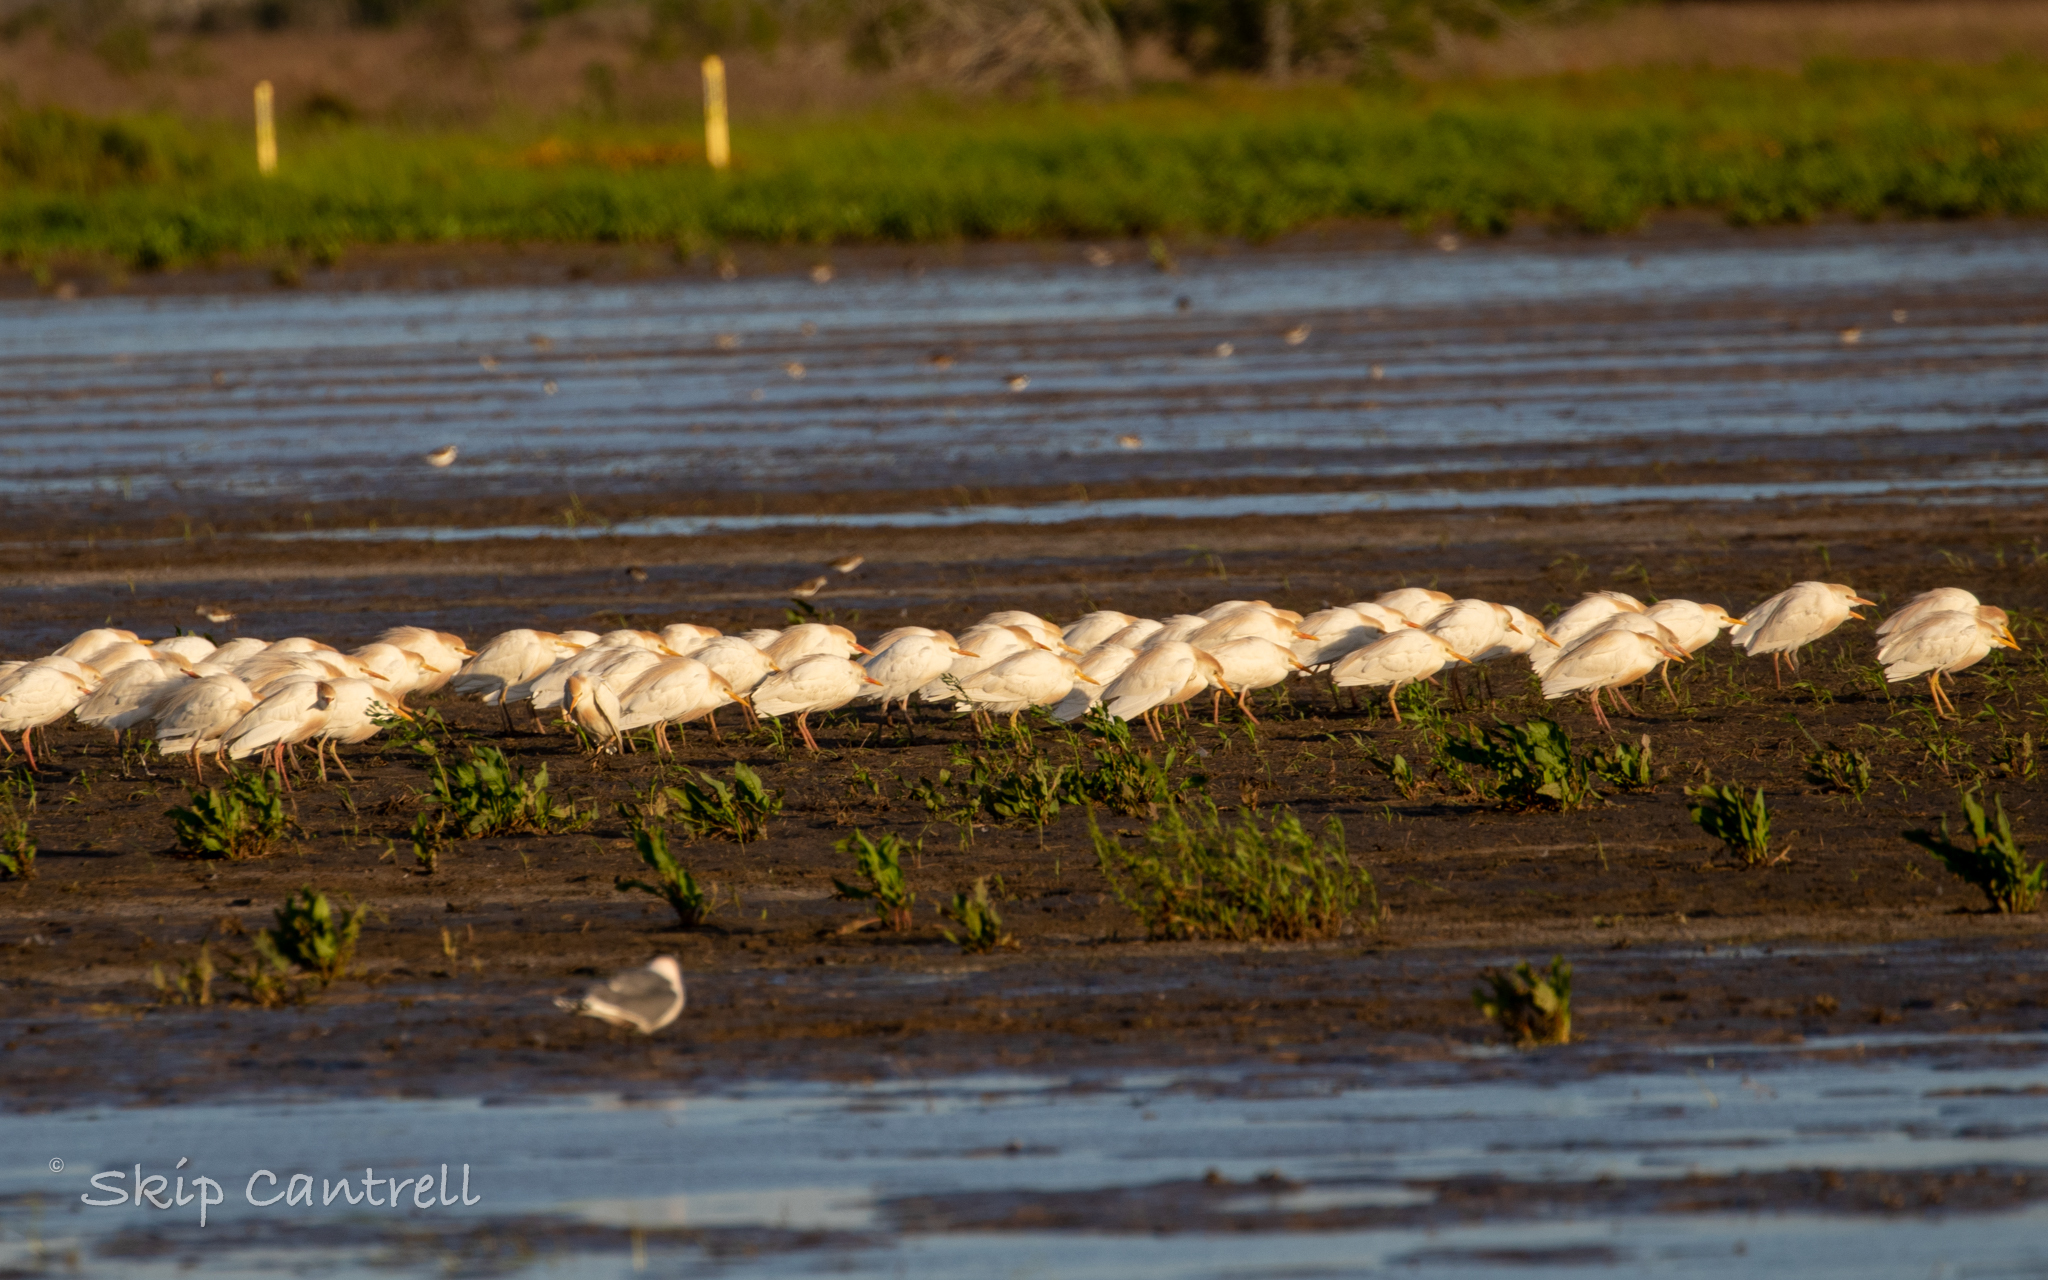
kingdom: Animalia
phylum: Chordata
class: Aves
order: Pelecaniformes
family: Ardeidae
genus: Bubulcus
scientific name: Bubulcus ibis
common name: Cattle egret
